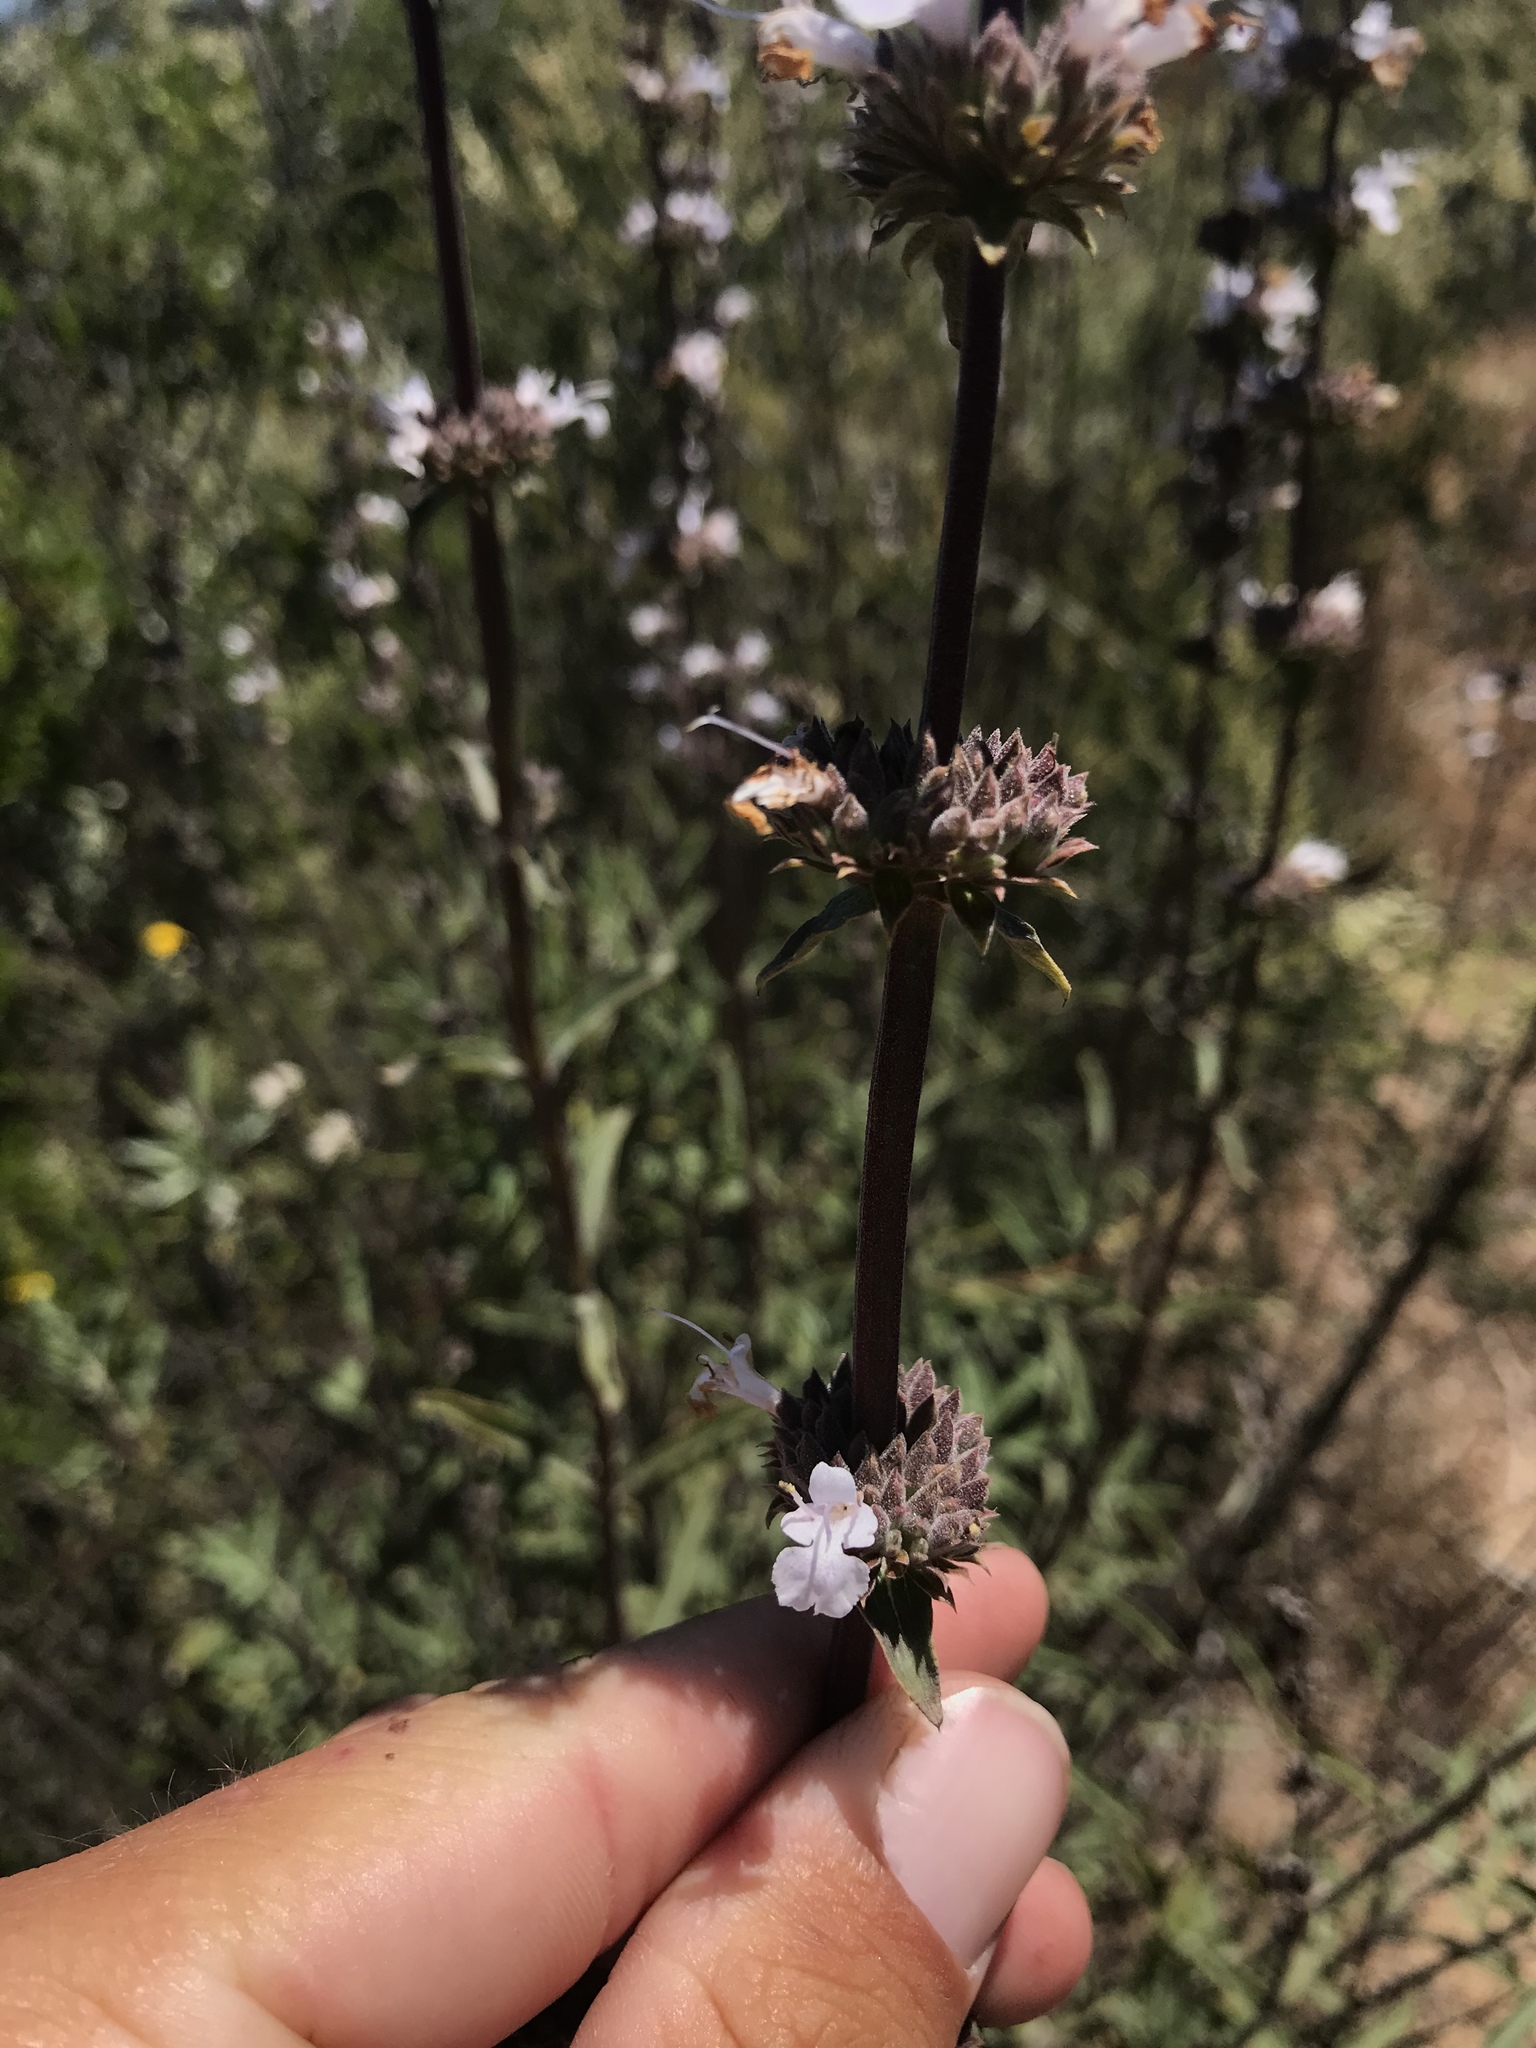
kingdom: Plantae
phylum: Tracheophyta
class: Magnoliopsida
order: Lamiales
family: Lamiaceae
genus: Salvia
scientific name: Salvia mellifera
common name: Black sage
